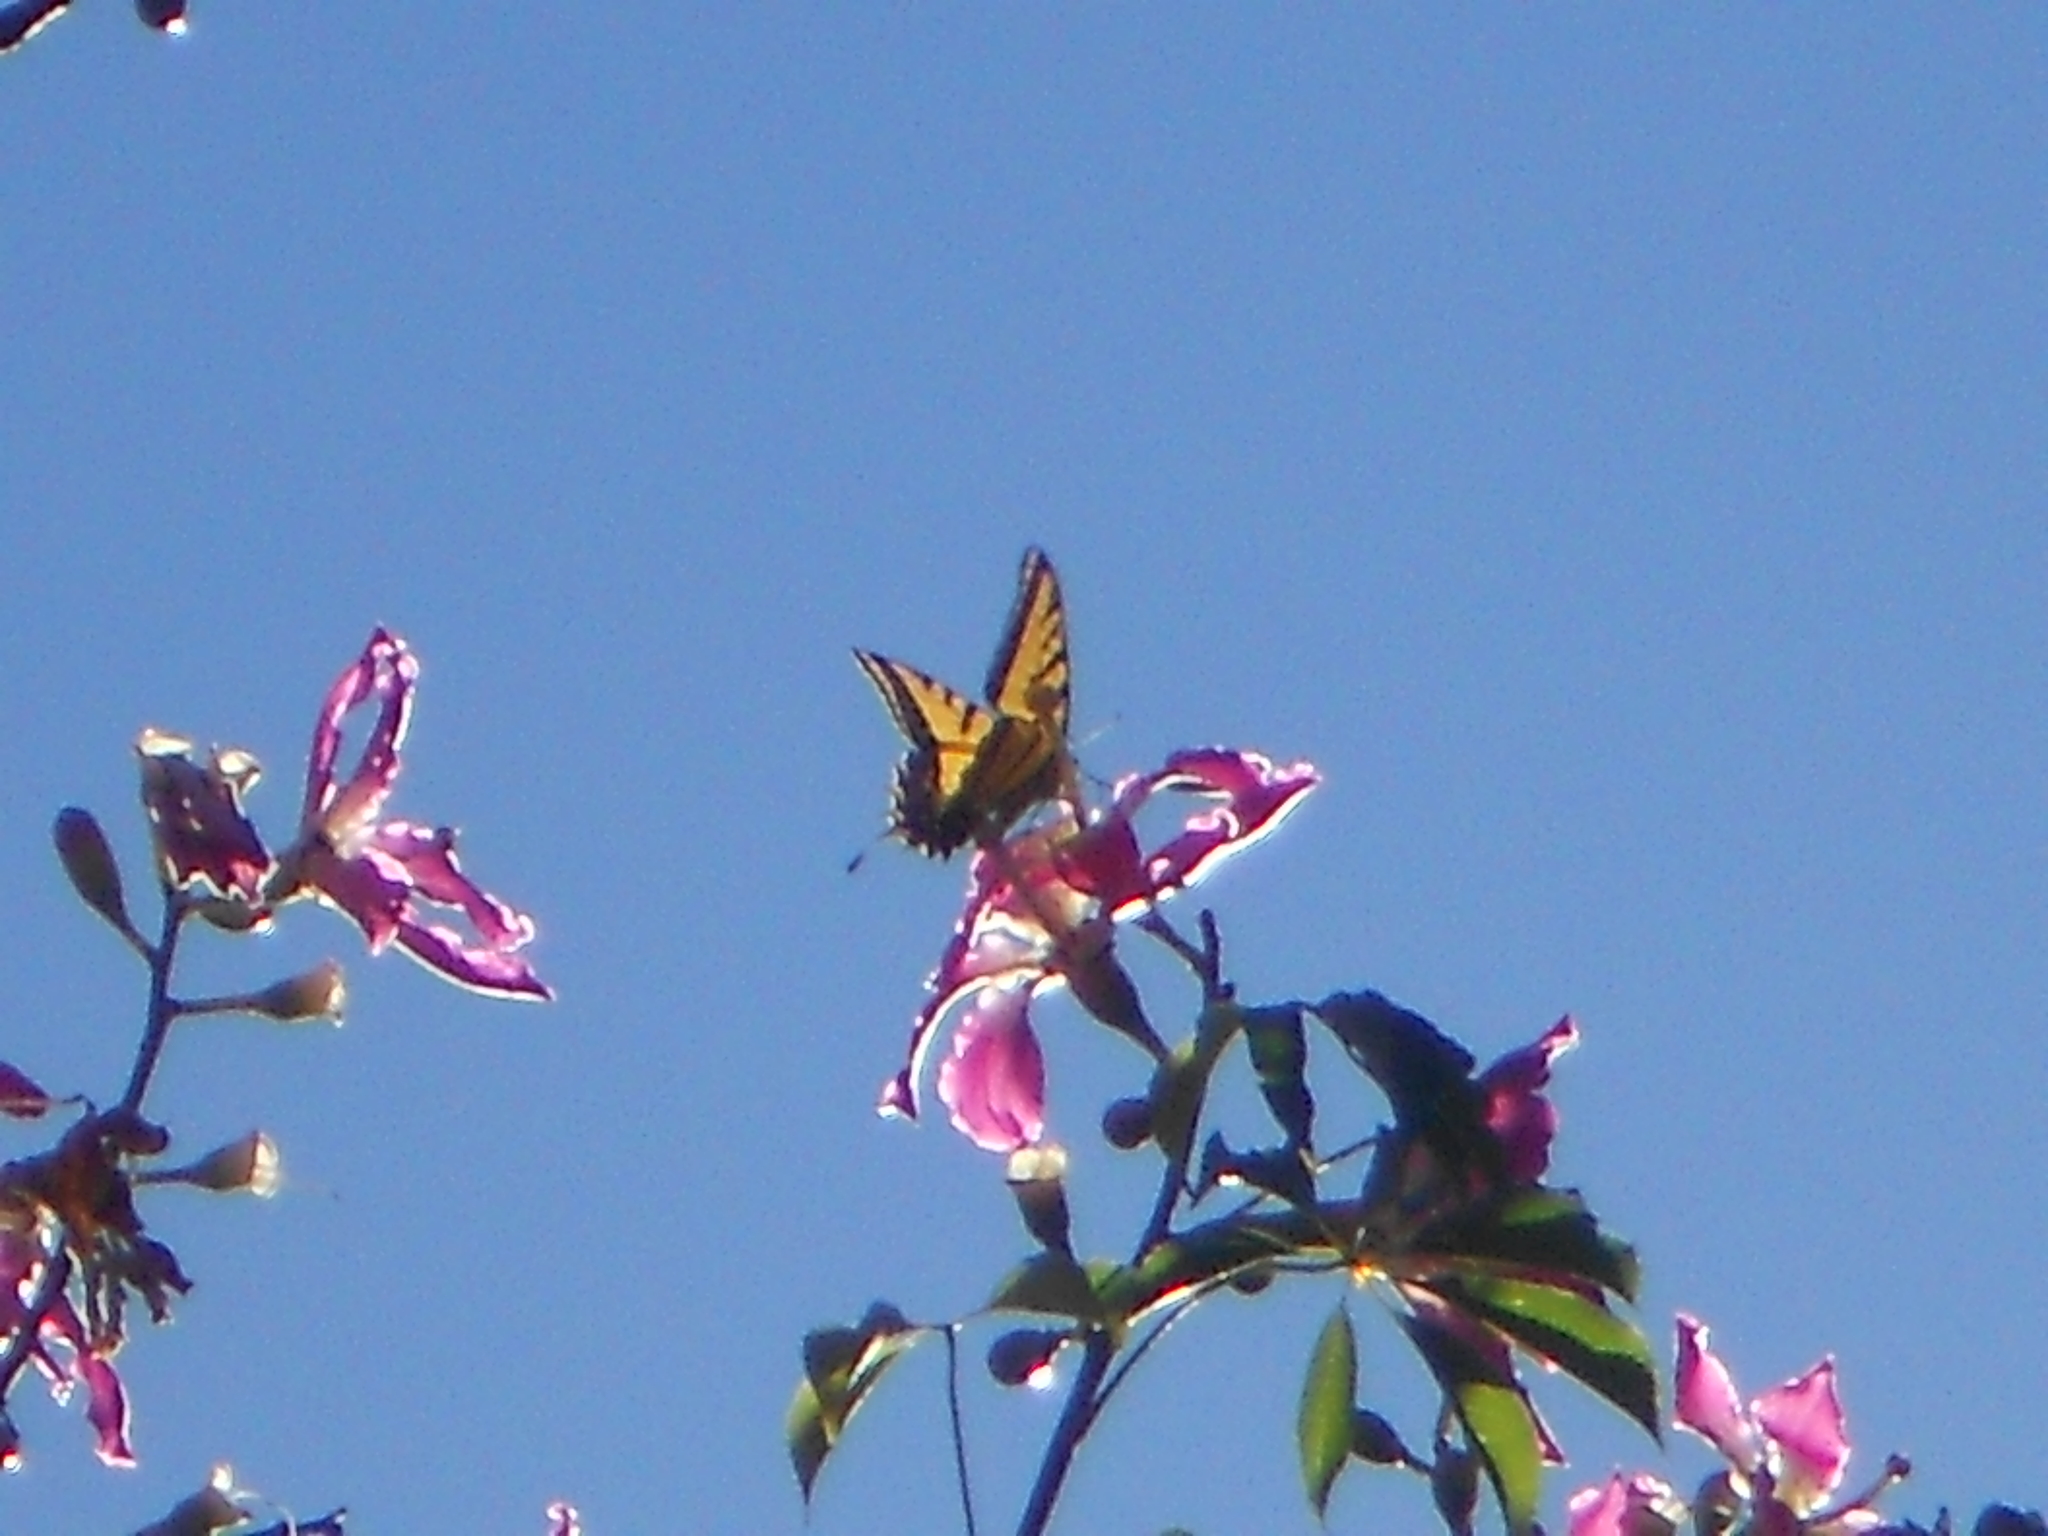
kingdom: Animalia
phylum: Arthropoda
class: Insecta
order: Lepidoptera
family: Papilionidae
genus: Papilio
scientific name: Papilio multicaudata
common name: Two-tailed tiger swallowtail
